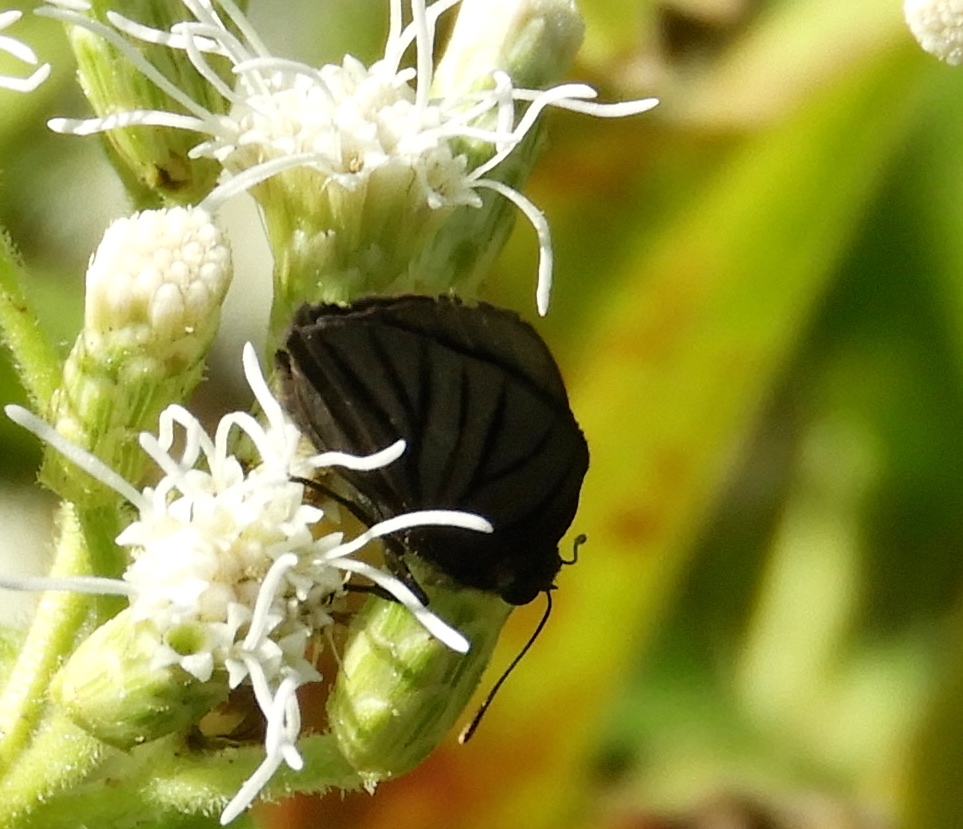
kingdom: Animalia
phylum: Arthropoda
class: Insecta
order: Lepidoptera
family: Lycaenidae
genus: Ipidecla
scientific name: Ipidecla miadora
